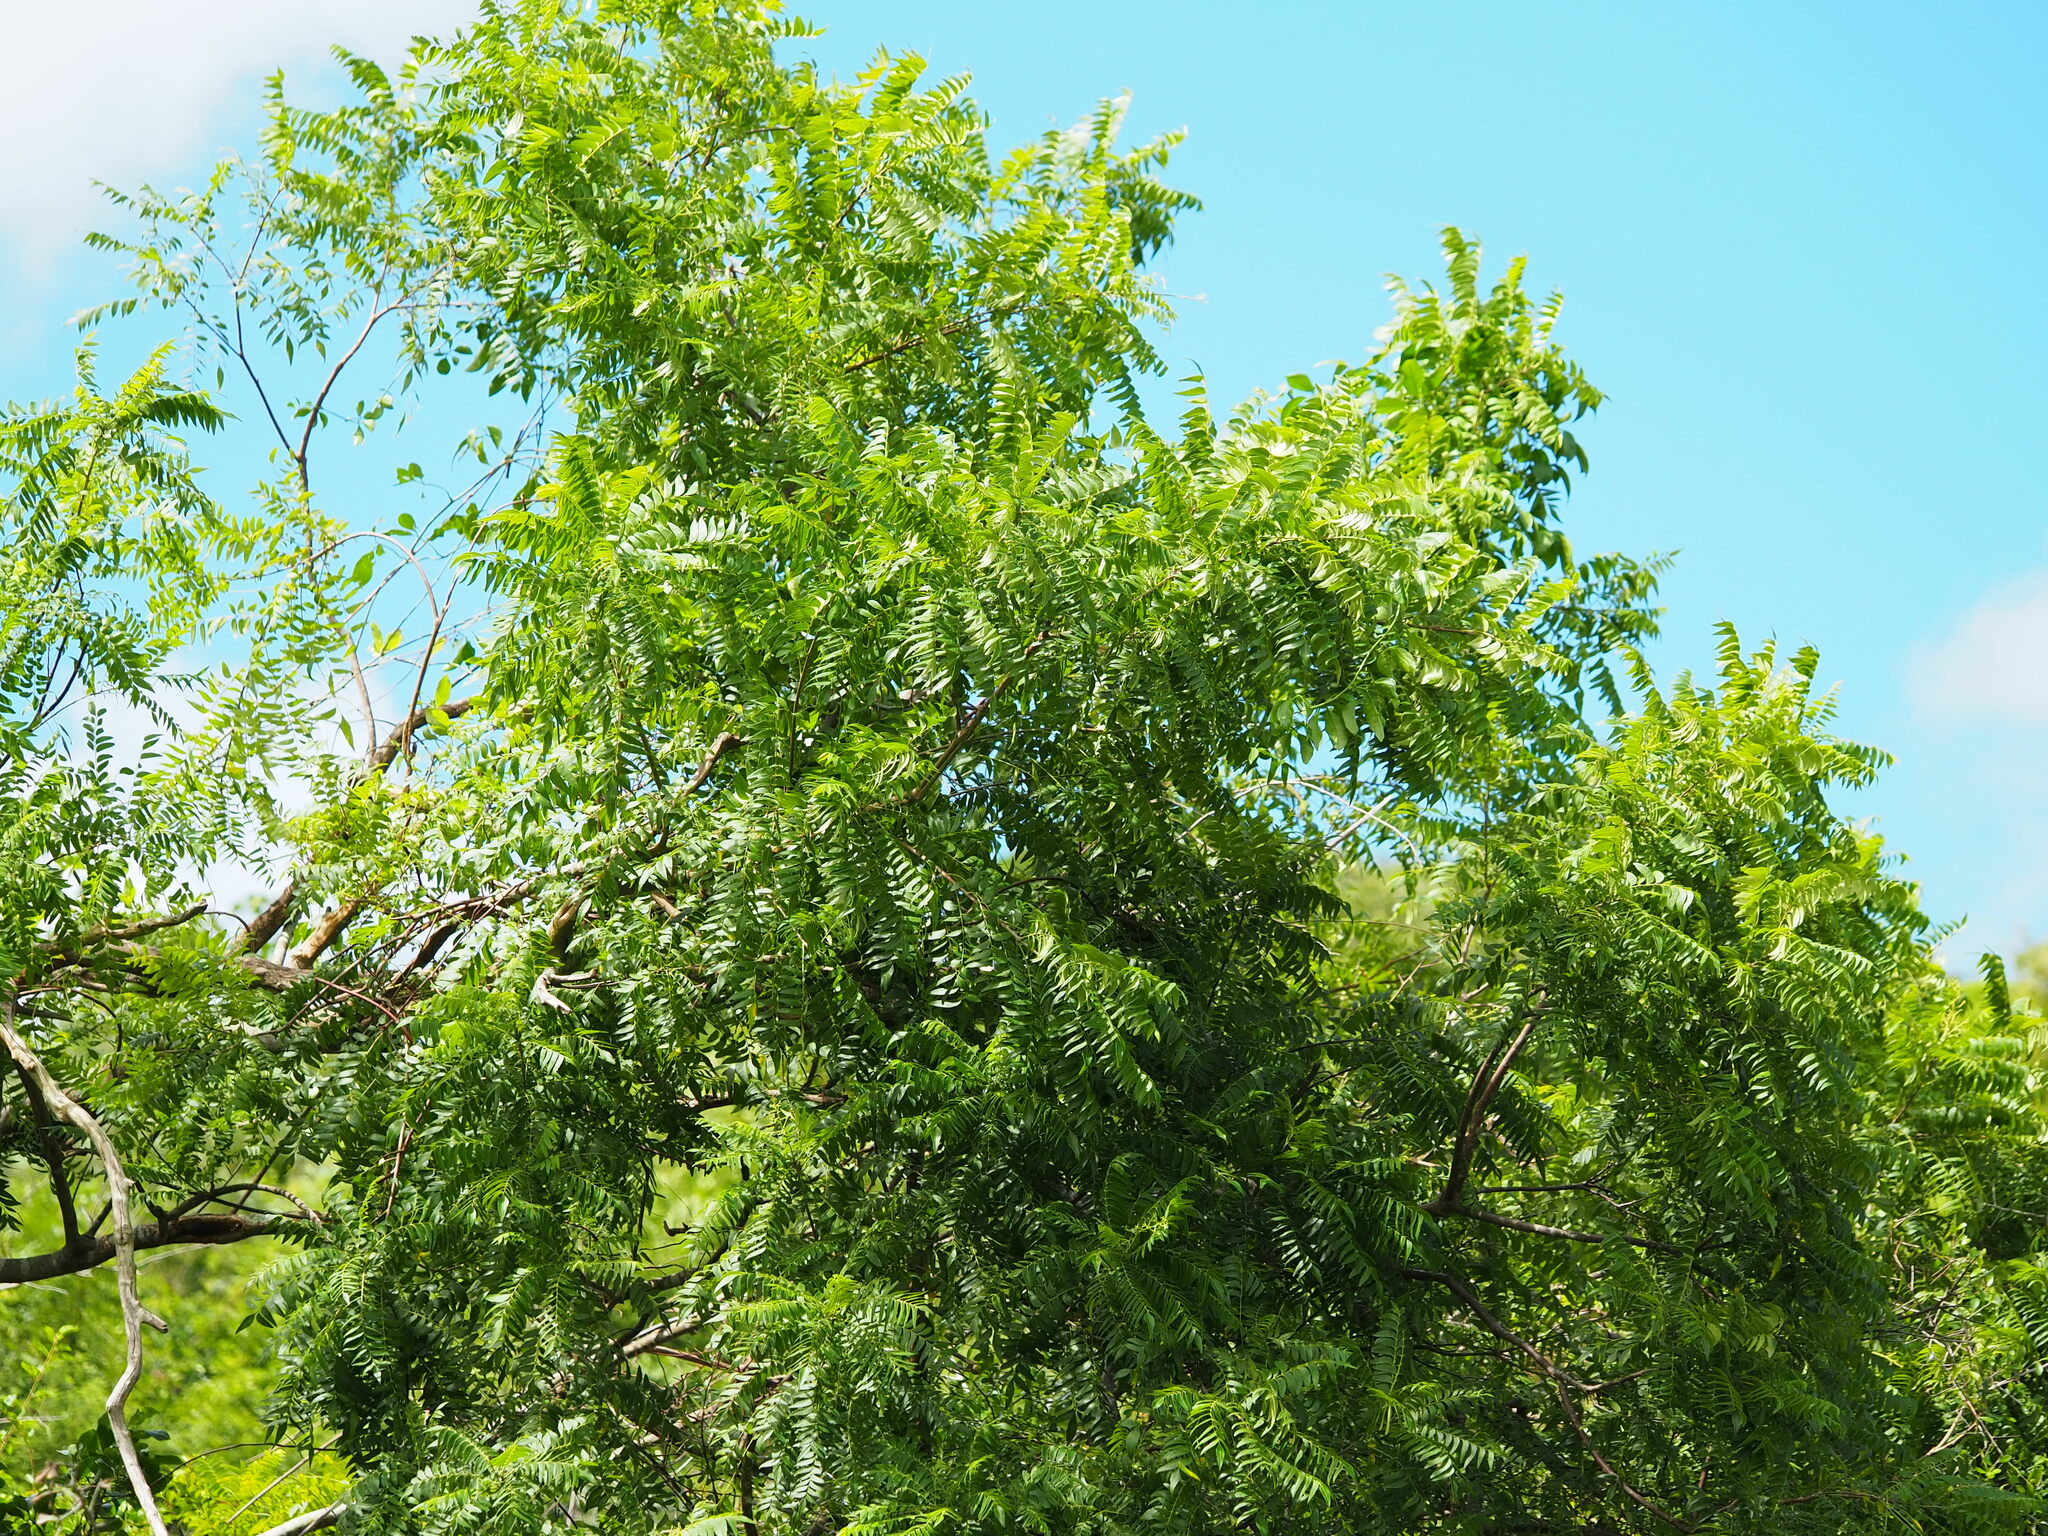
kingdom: Plantae
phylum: Tracheophyta
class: Magnoliopsida
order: Sapindales
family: Rutaceae
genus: Clausena
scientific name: Clausena excavata
